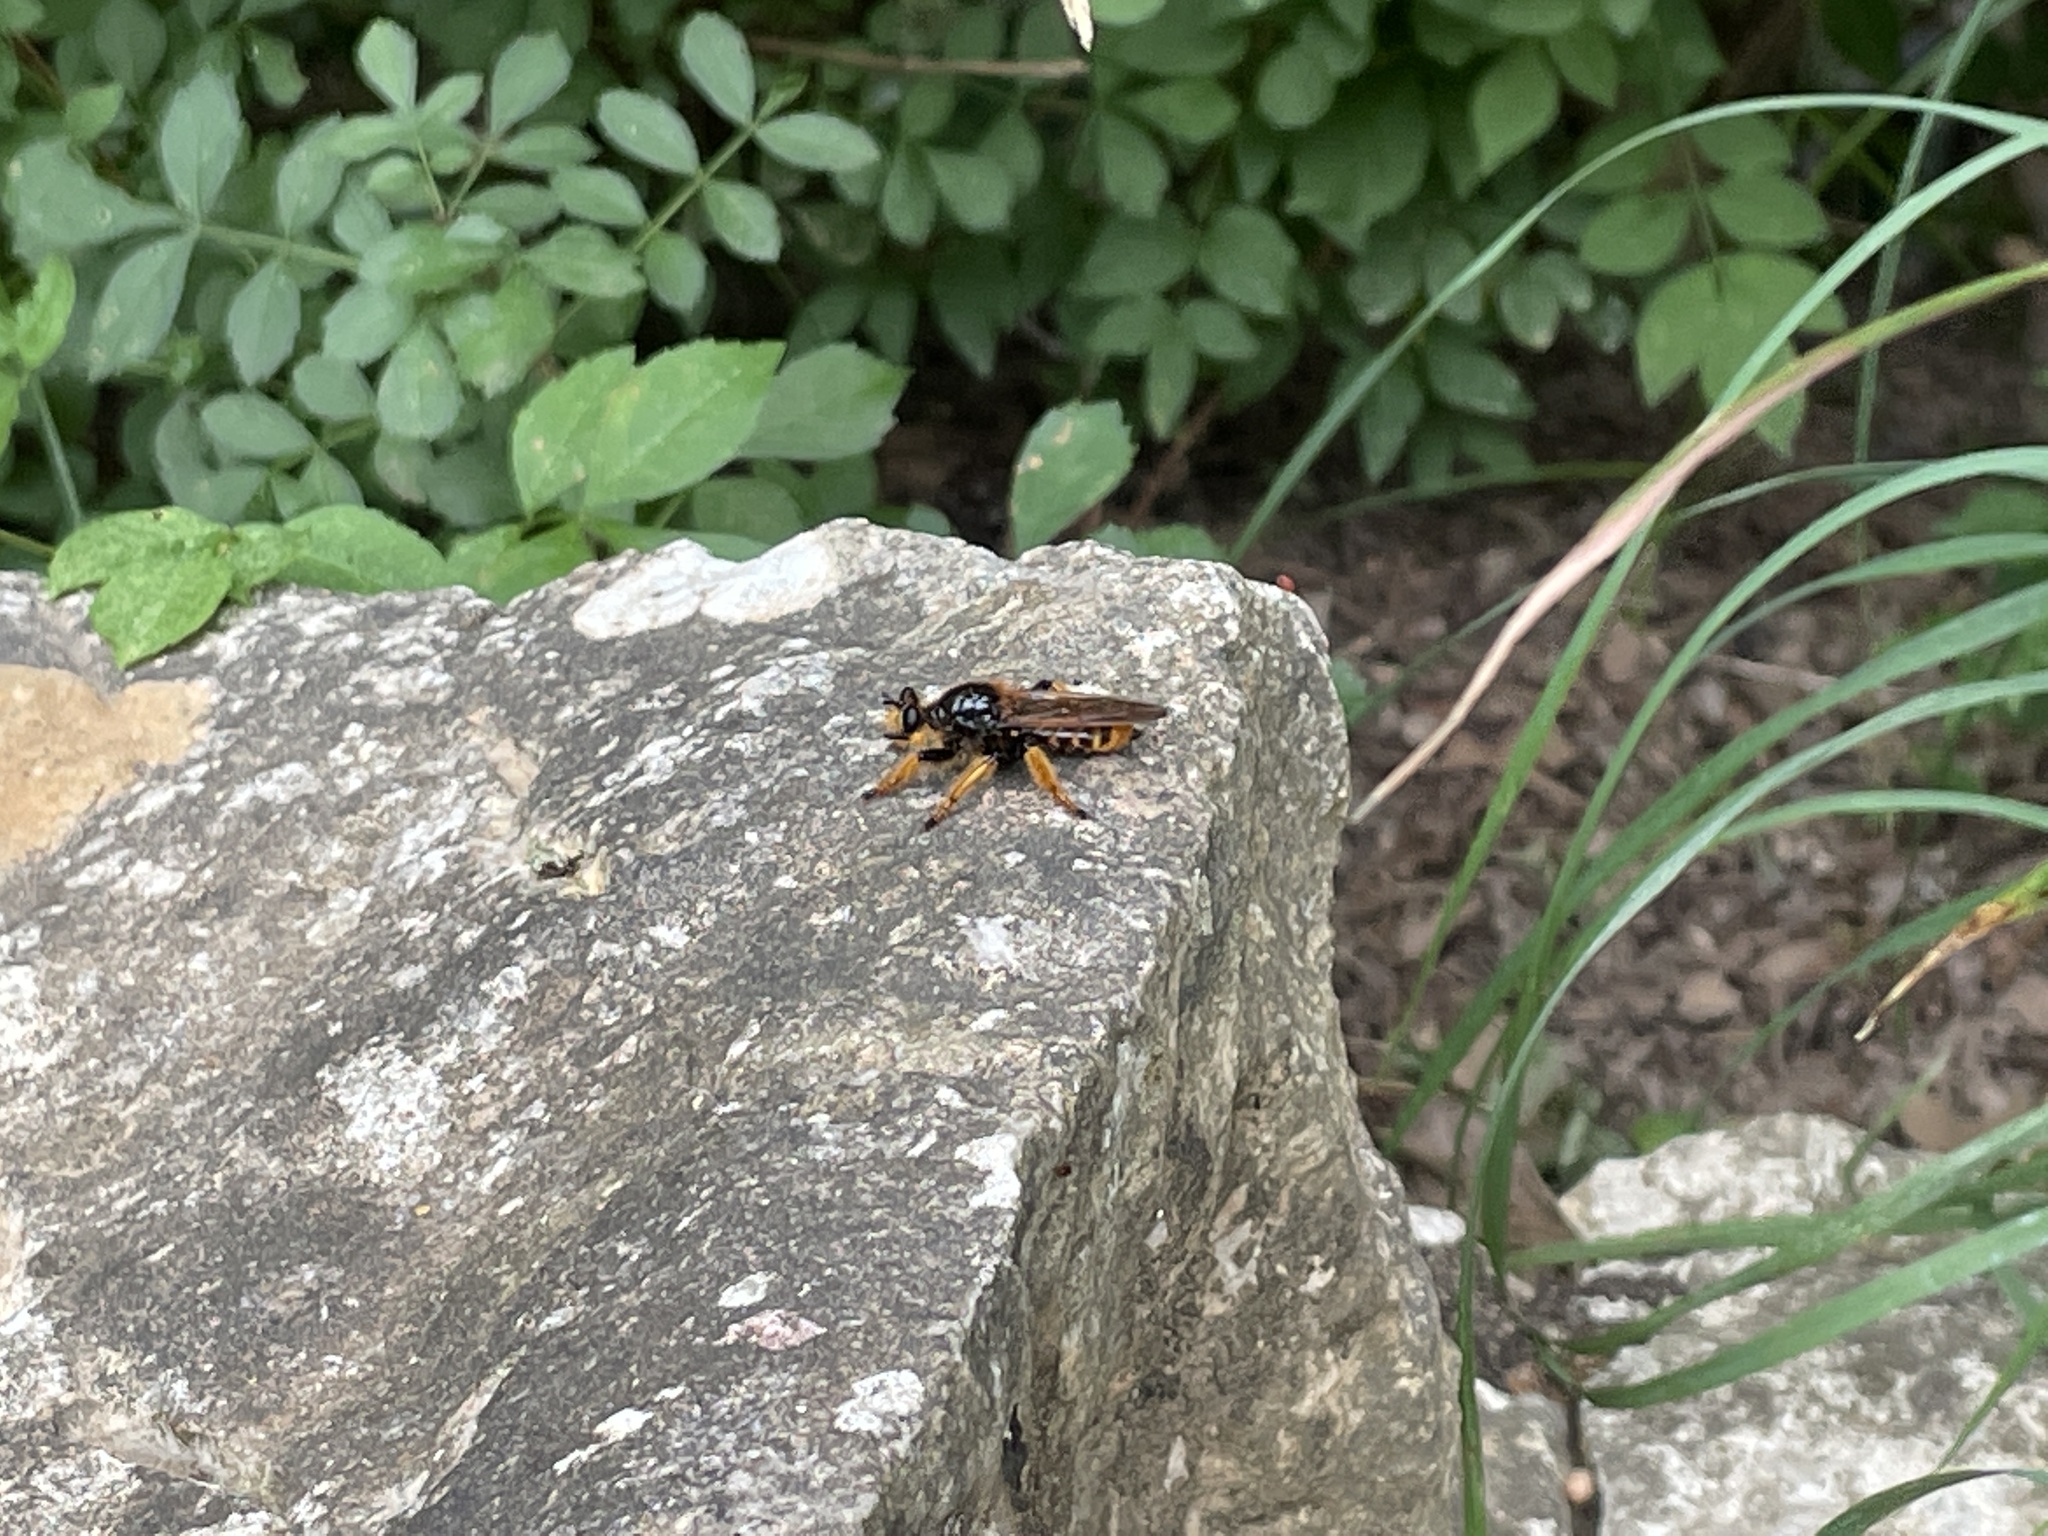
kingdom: Animalia
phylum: Arthropoda
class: Insecta
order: Diptera
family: Asilidae
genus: Pogonosoma
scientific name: Pogonosoma maroccanum
